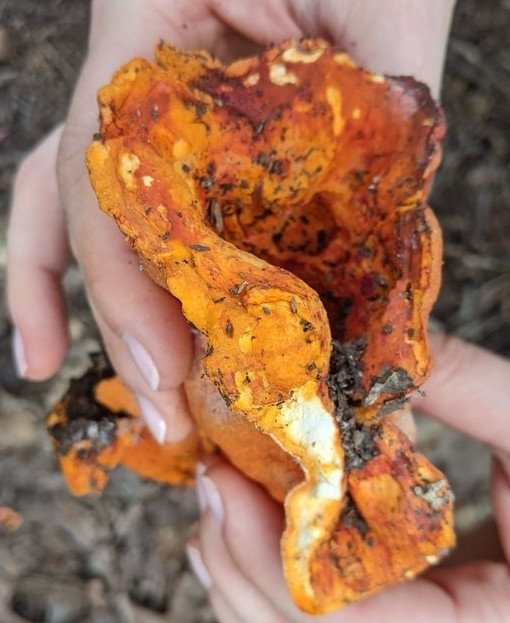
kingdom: Fungi
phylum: Ascomycota
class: Sordariomycetes
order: Hypocreales
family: Hypocreaceae
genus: Hypomyces
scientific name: Hypomyces lactifluorum
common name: Lobster mushroom
